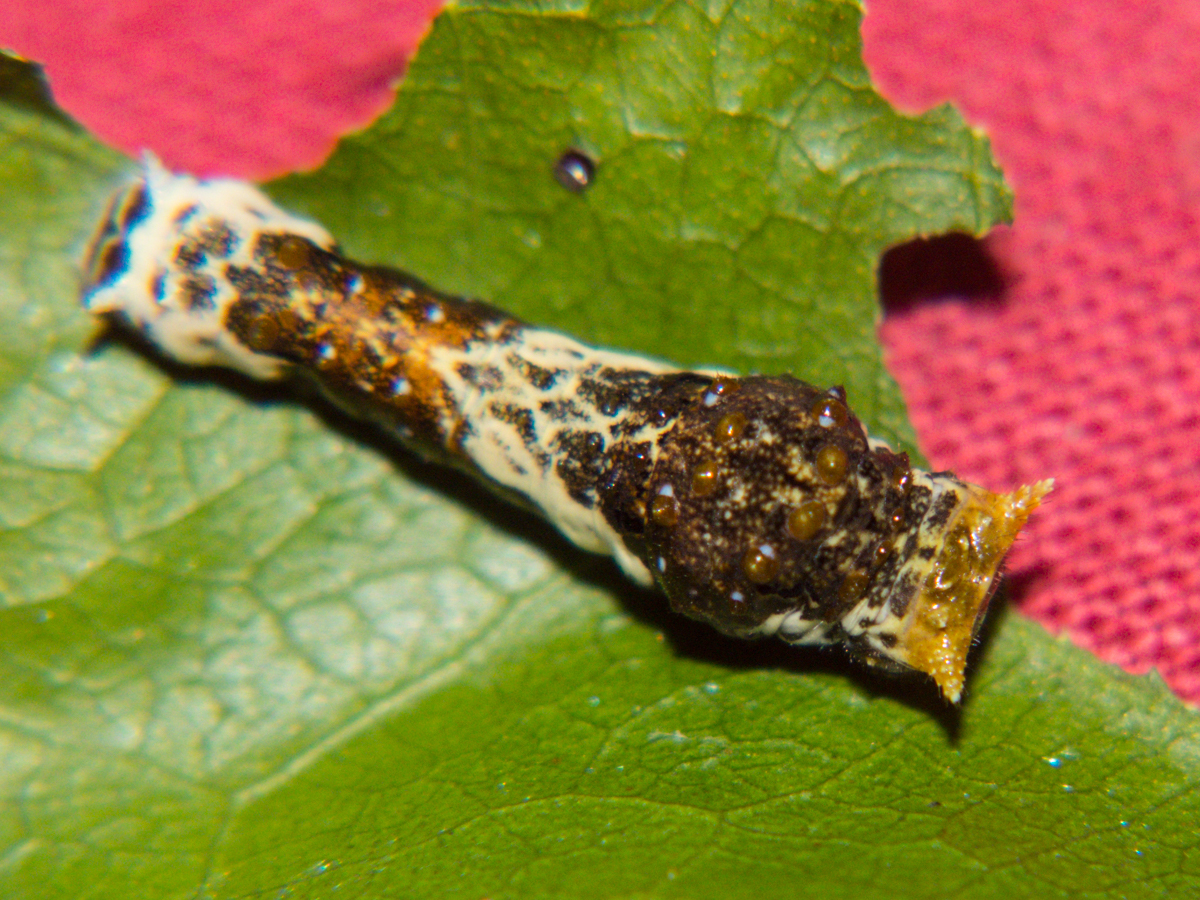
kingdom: Animalia
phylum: Arthropoda
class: Insecta
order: Lepidoptera
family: Papilionidae
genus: Papilio
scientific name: Papilio polytes
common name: Common mormon
